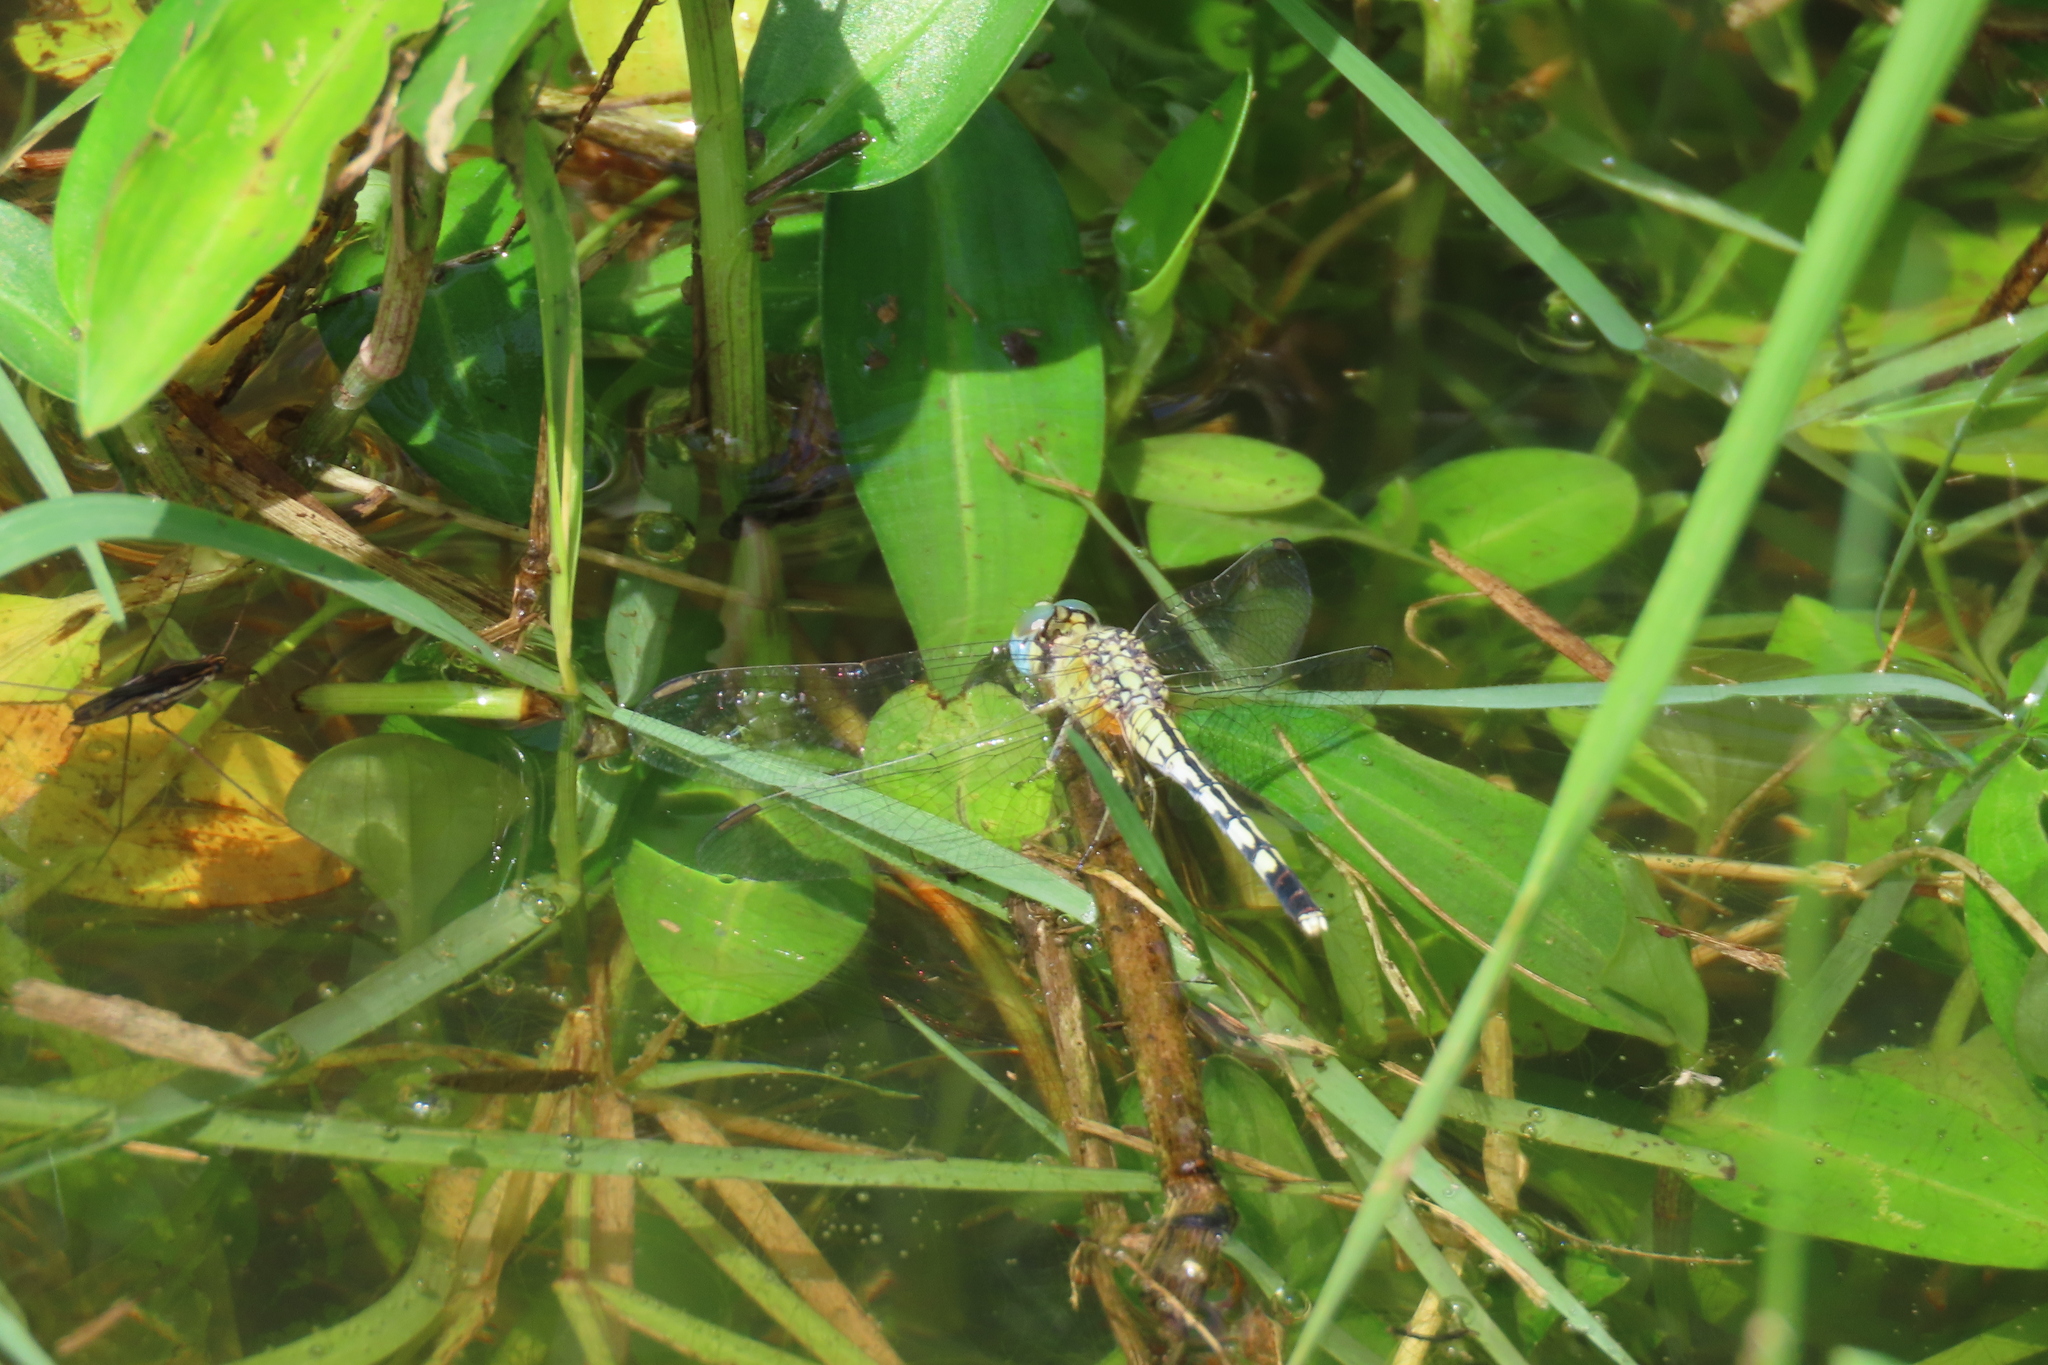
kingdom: Animalia
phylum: Arthropoda
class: Insecta
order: Odonata
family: Libellulidae
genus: Diplacodes
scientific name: Diplacodes trivialis
